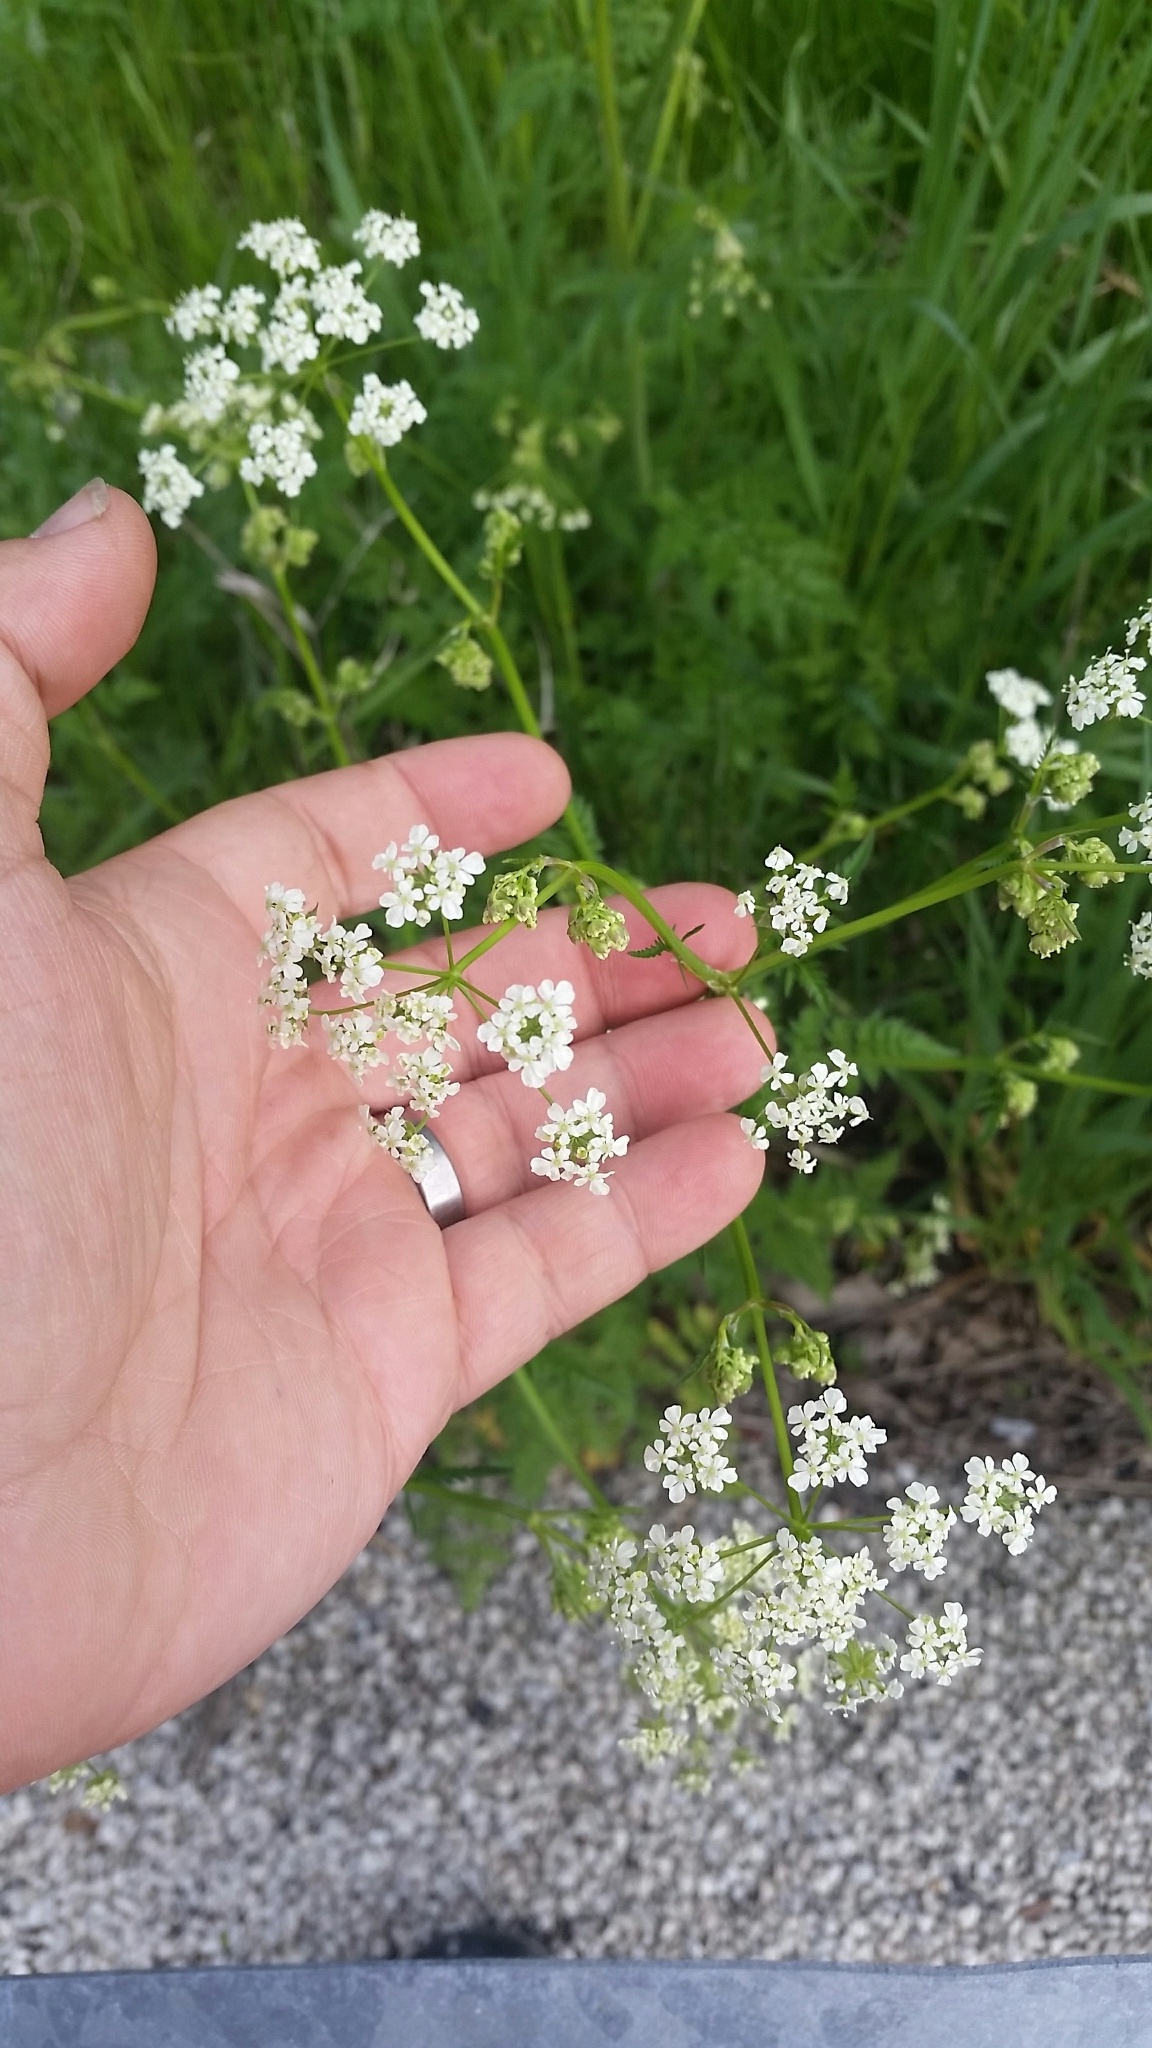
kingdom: Plantae
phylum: Tracheophyta
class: Magnoliopsida
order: Apiales
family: Apiaceae
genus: Anthriscus
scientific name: Anthriscus sylvestris
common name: Cow parsley
